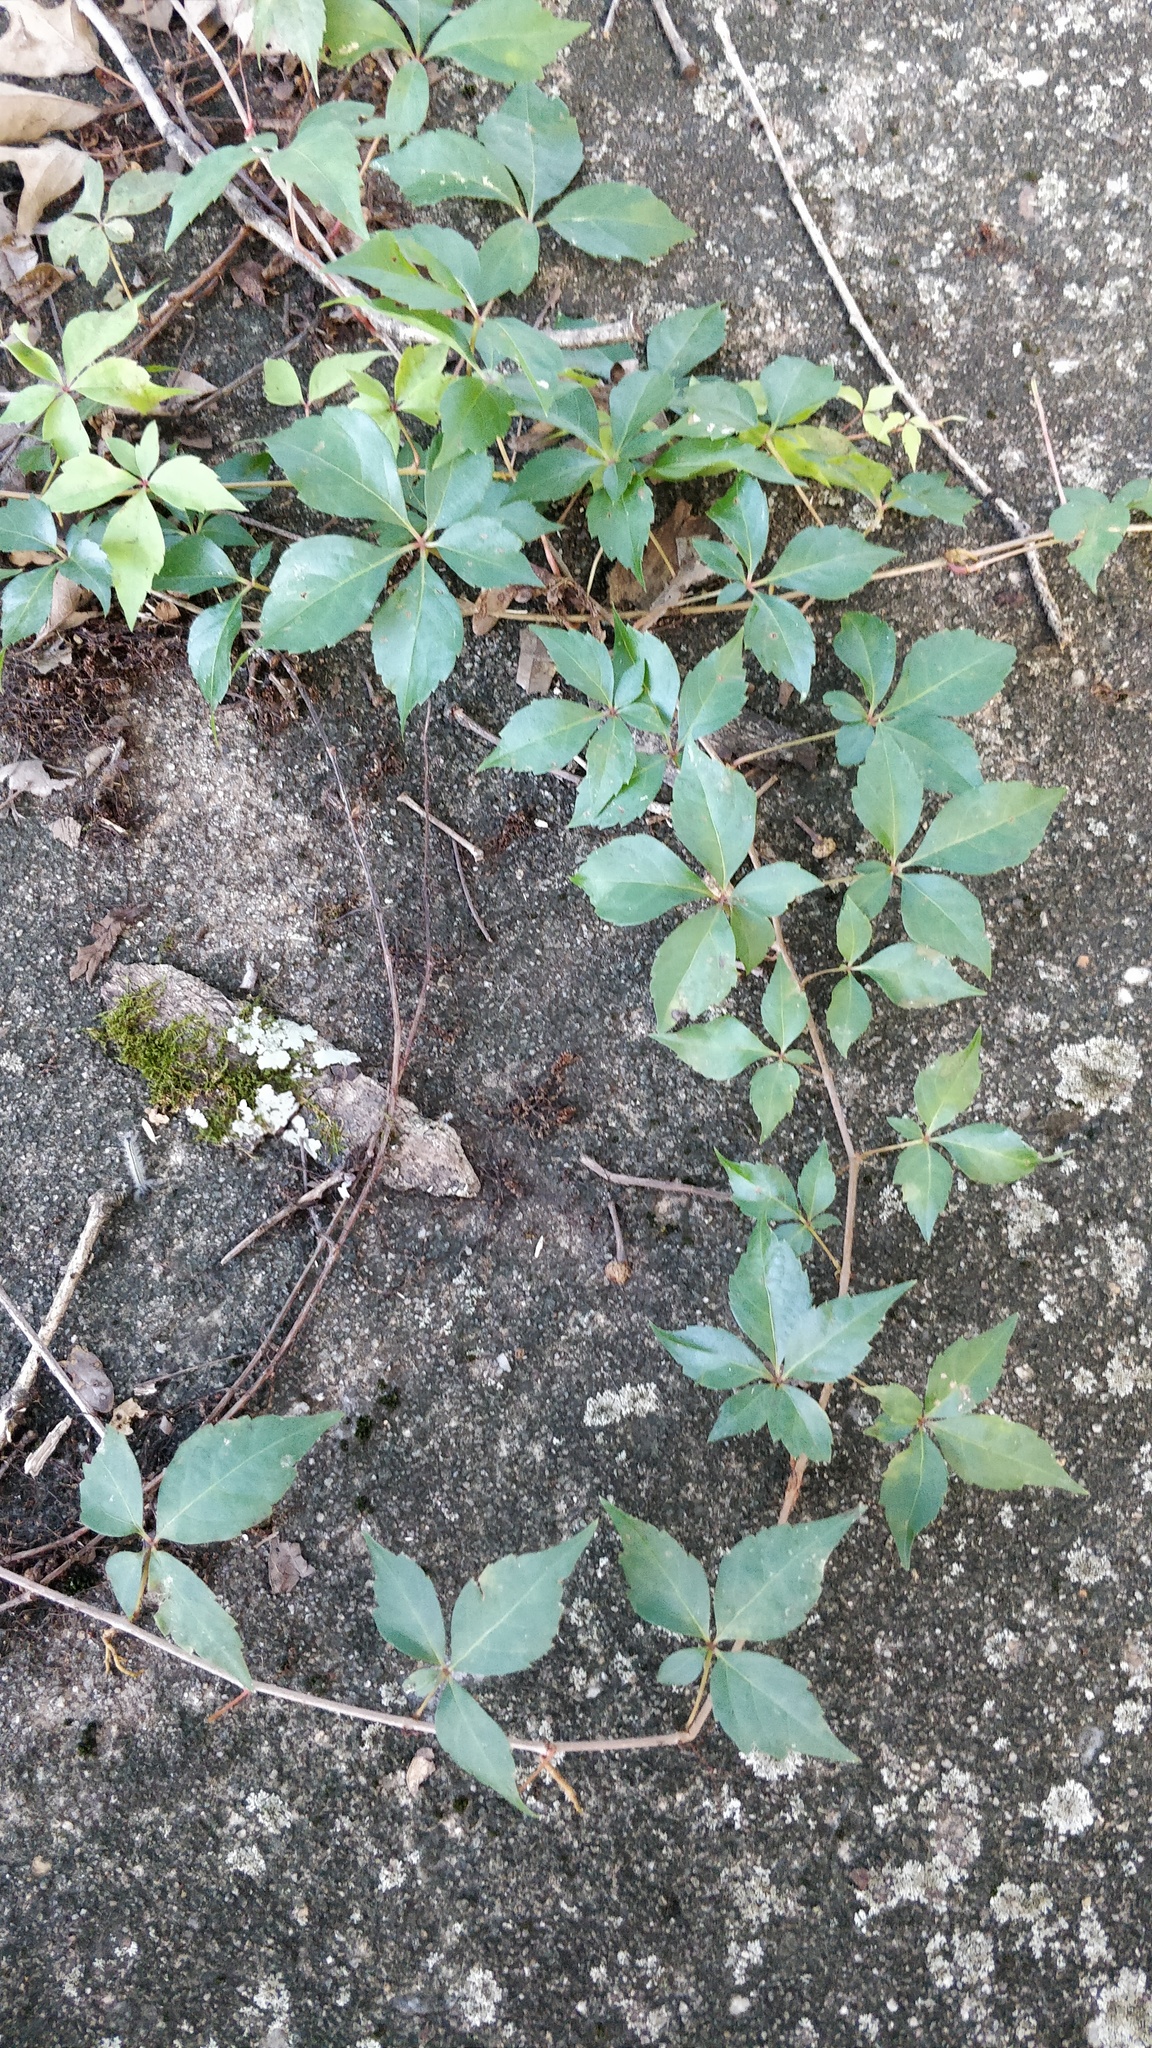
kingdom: Plantae
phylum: Tracheophyta
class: Magnoliopsida
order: Vitales
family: Vitaceae
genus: Parthenocissus
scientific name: Parthenocissus quinquefolia
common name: Virginia-creeper
